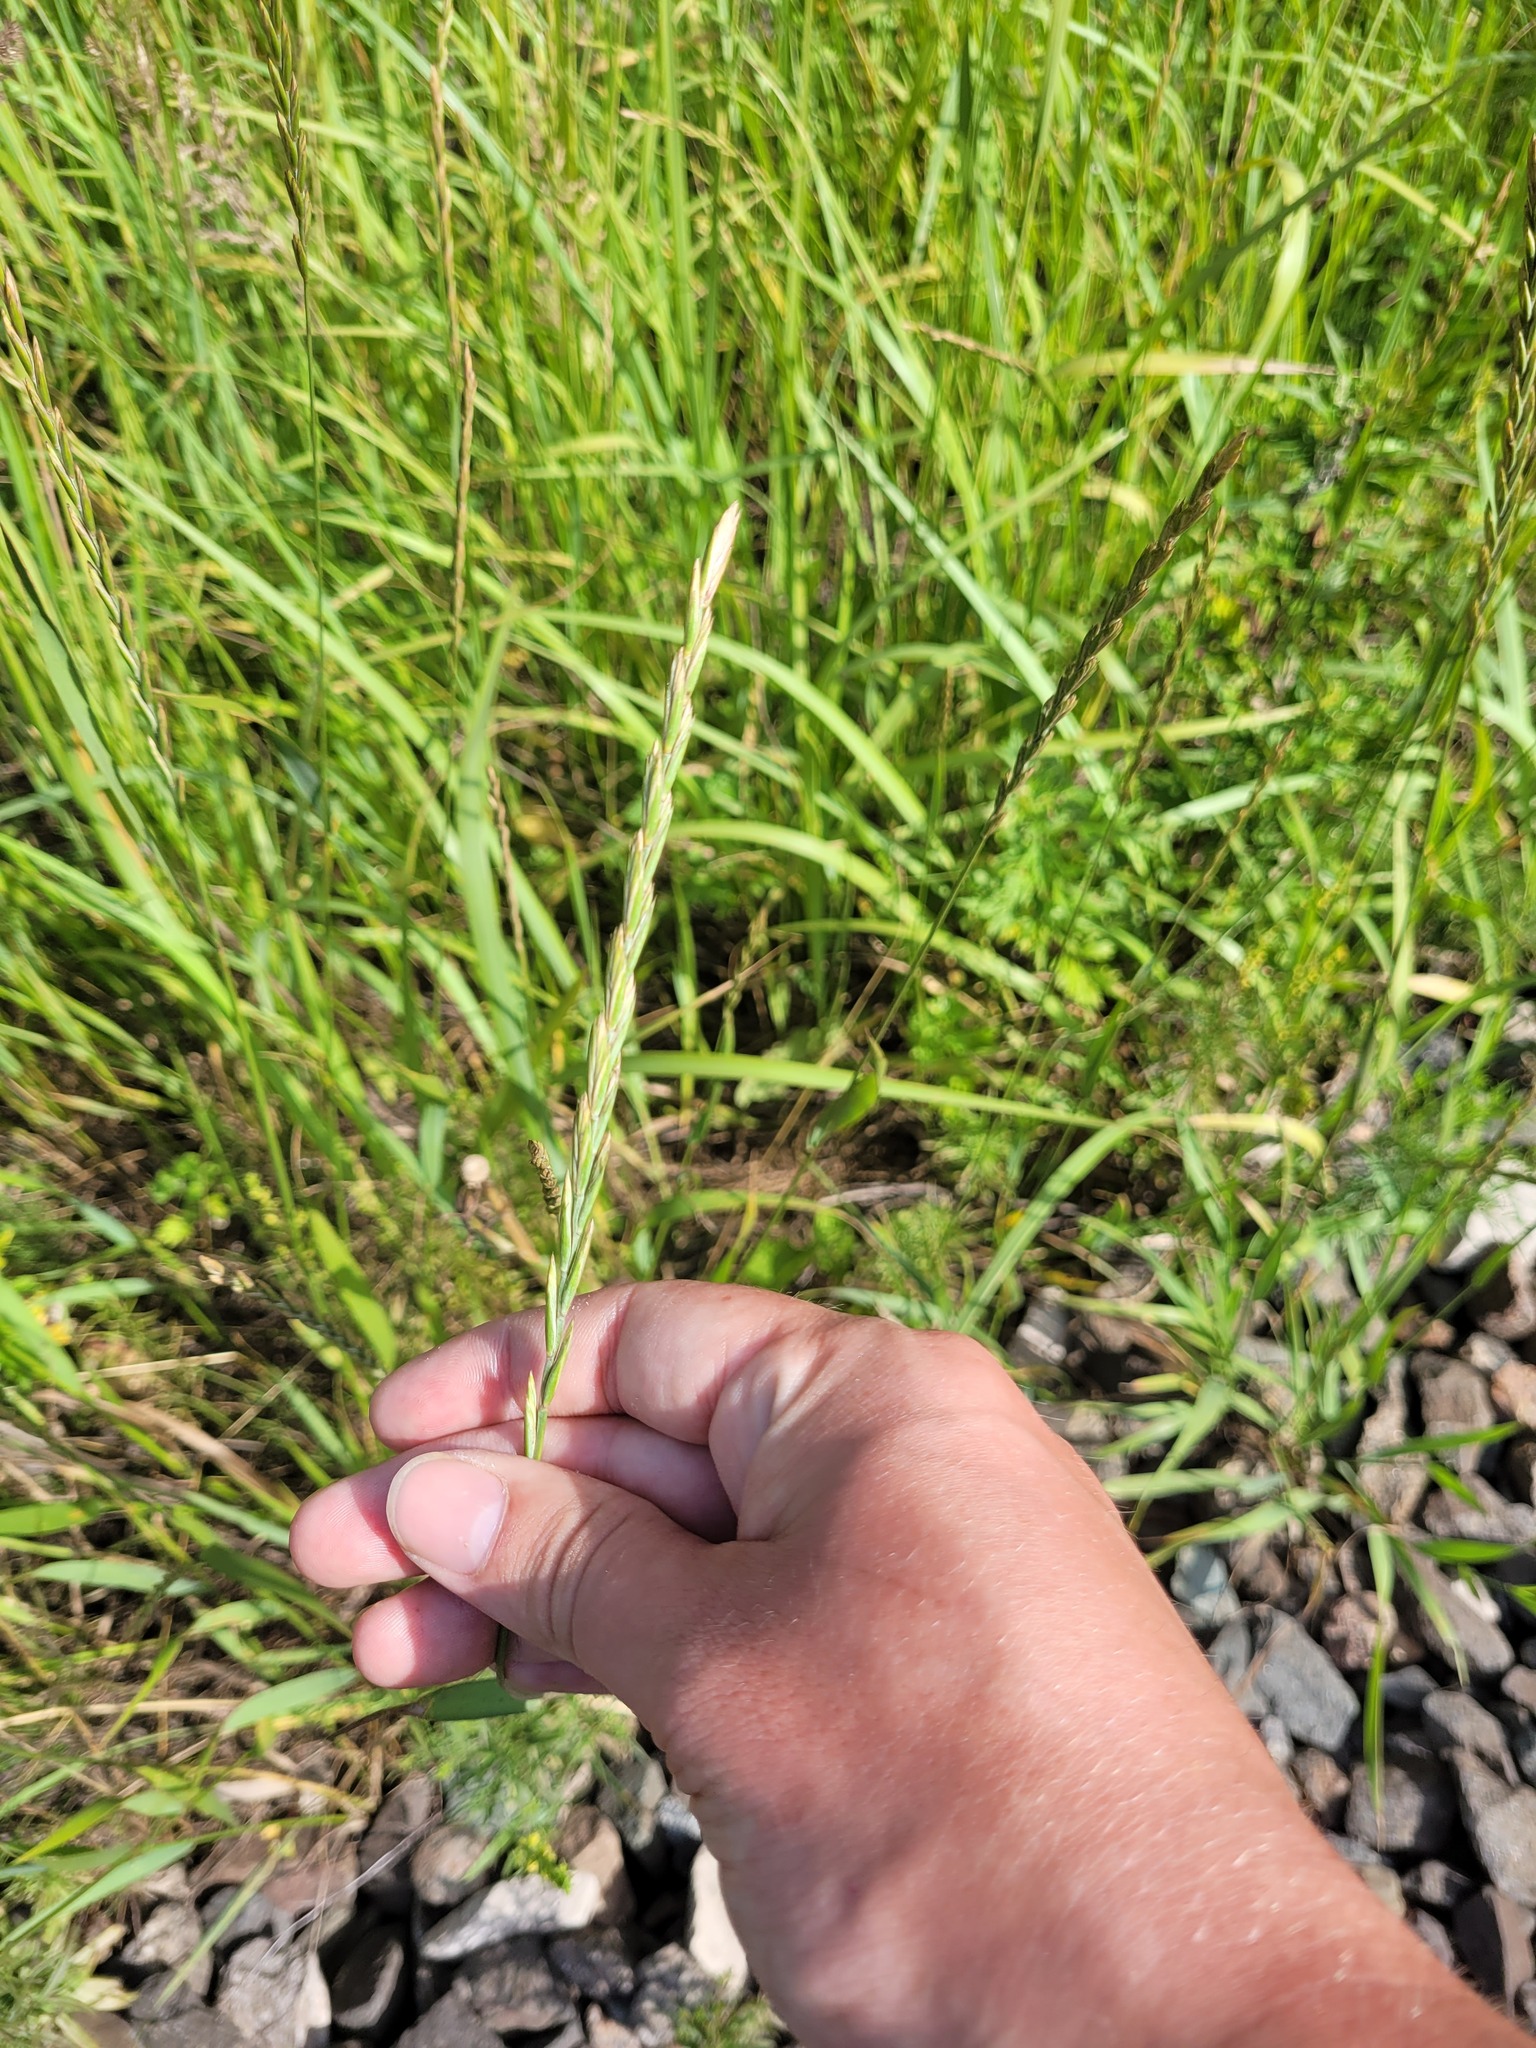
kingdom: Plantae
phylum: Tracheophyta
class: Liliopsida
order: Poales
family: Poaceae
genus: Elymus
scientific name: Elymus repens
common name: Quackgrass
